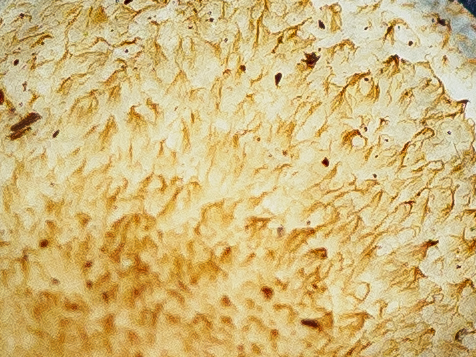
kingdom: Fungi
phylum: Basidiomycota
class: Agaricomycetes
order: Agaricales
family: Crepidotaceae
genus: Crepidotus
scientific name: Crepidotus calolepis
